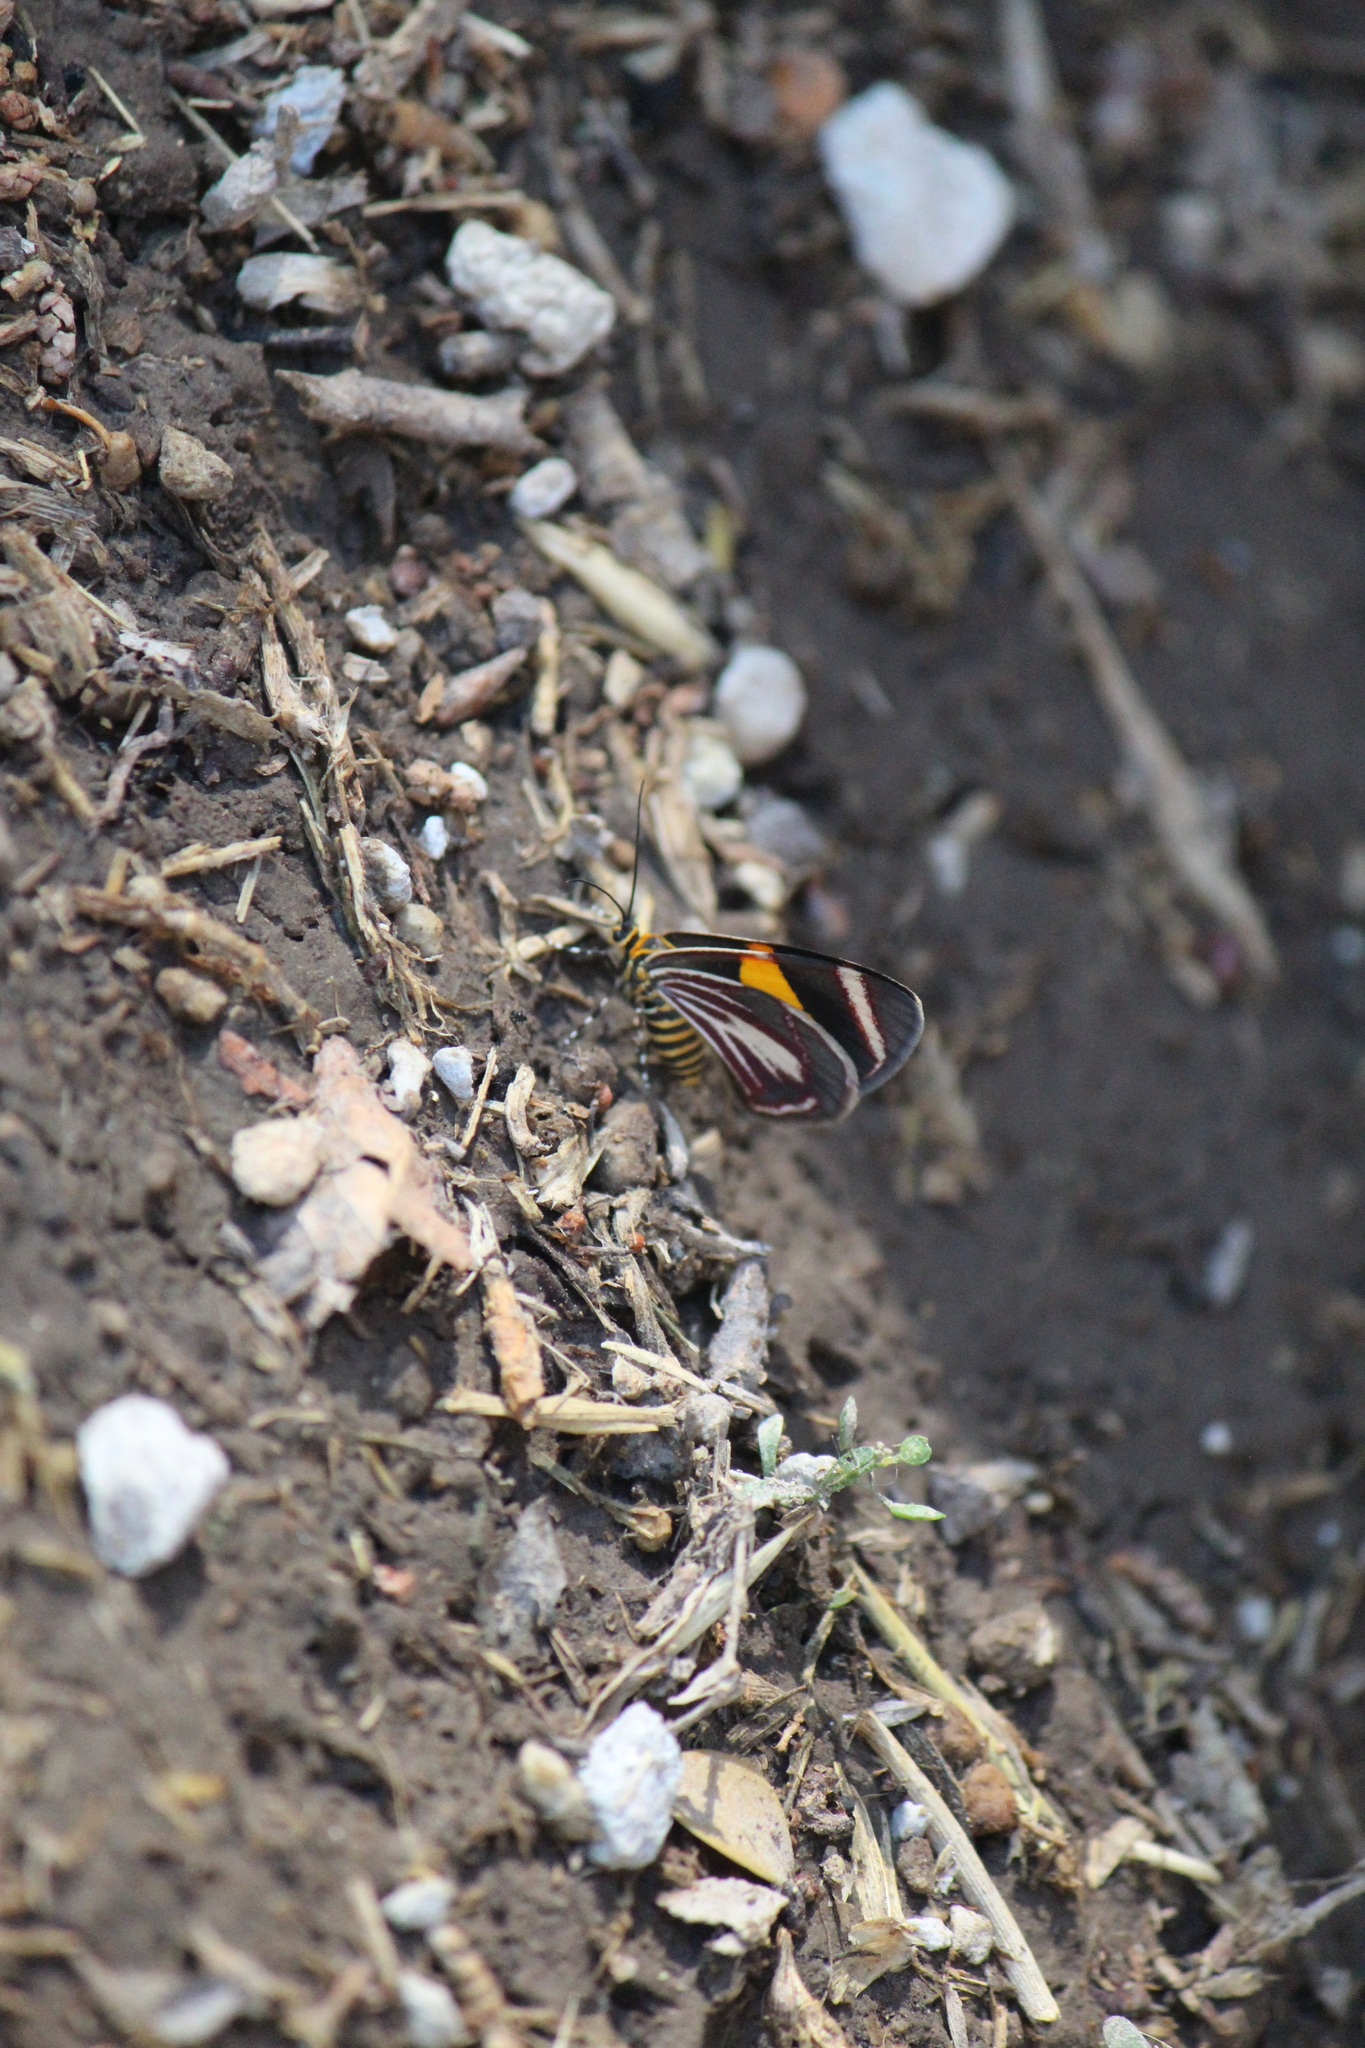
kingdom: Animalia
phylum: Arthropoda
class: Insecta
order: Lepidoptera
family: Geometridae
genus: Eutrepsia
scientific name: Eutrepsia haemataria
